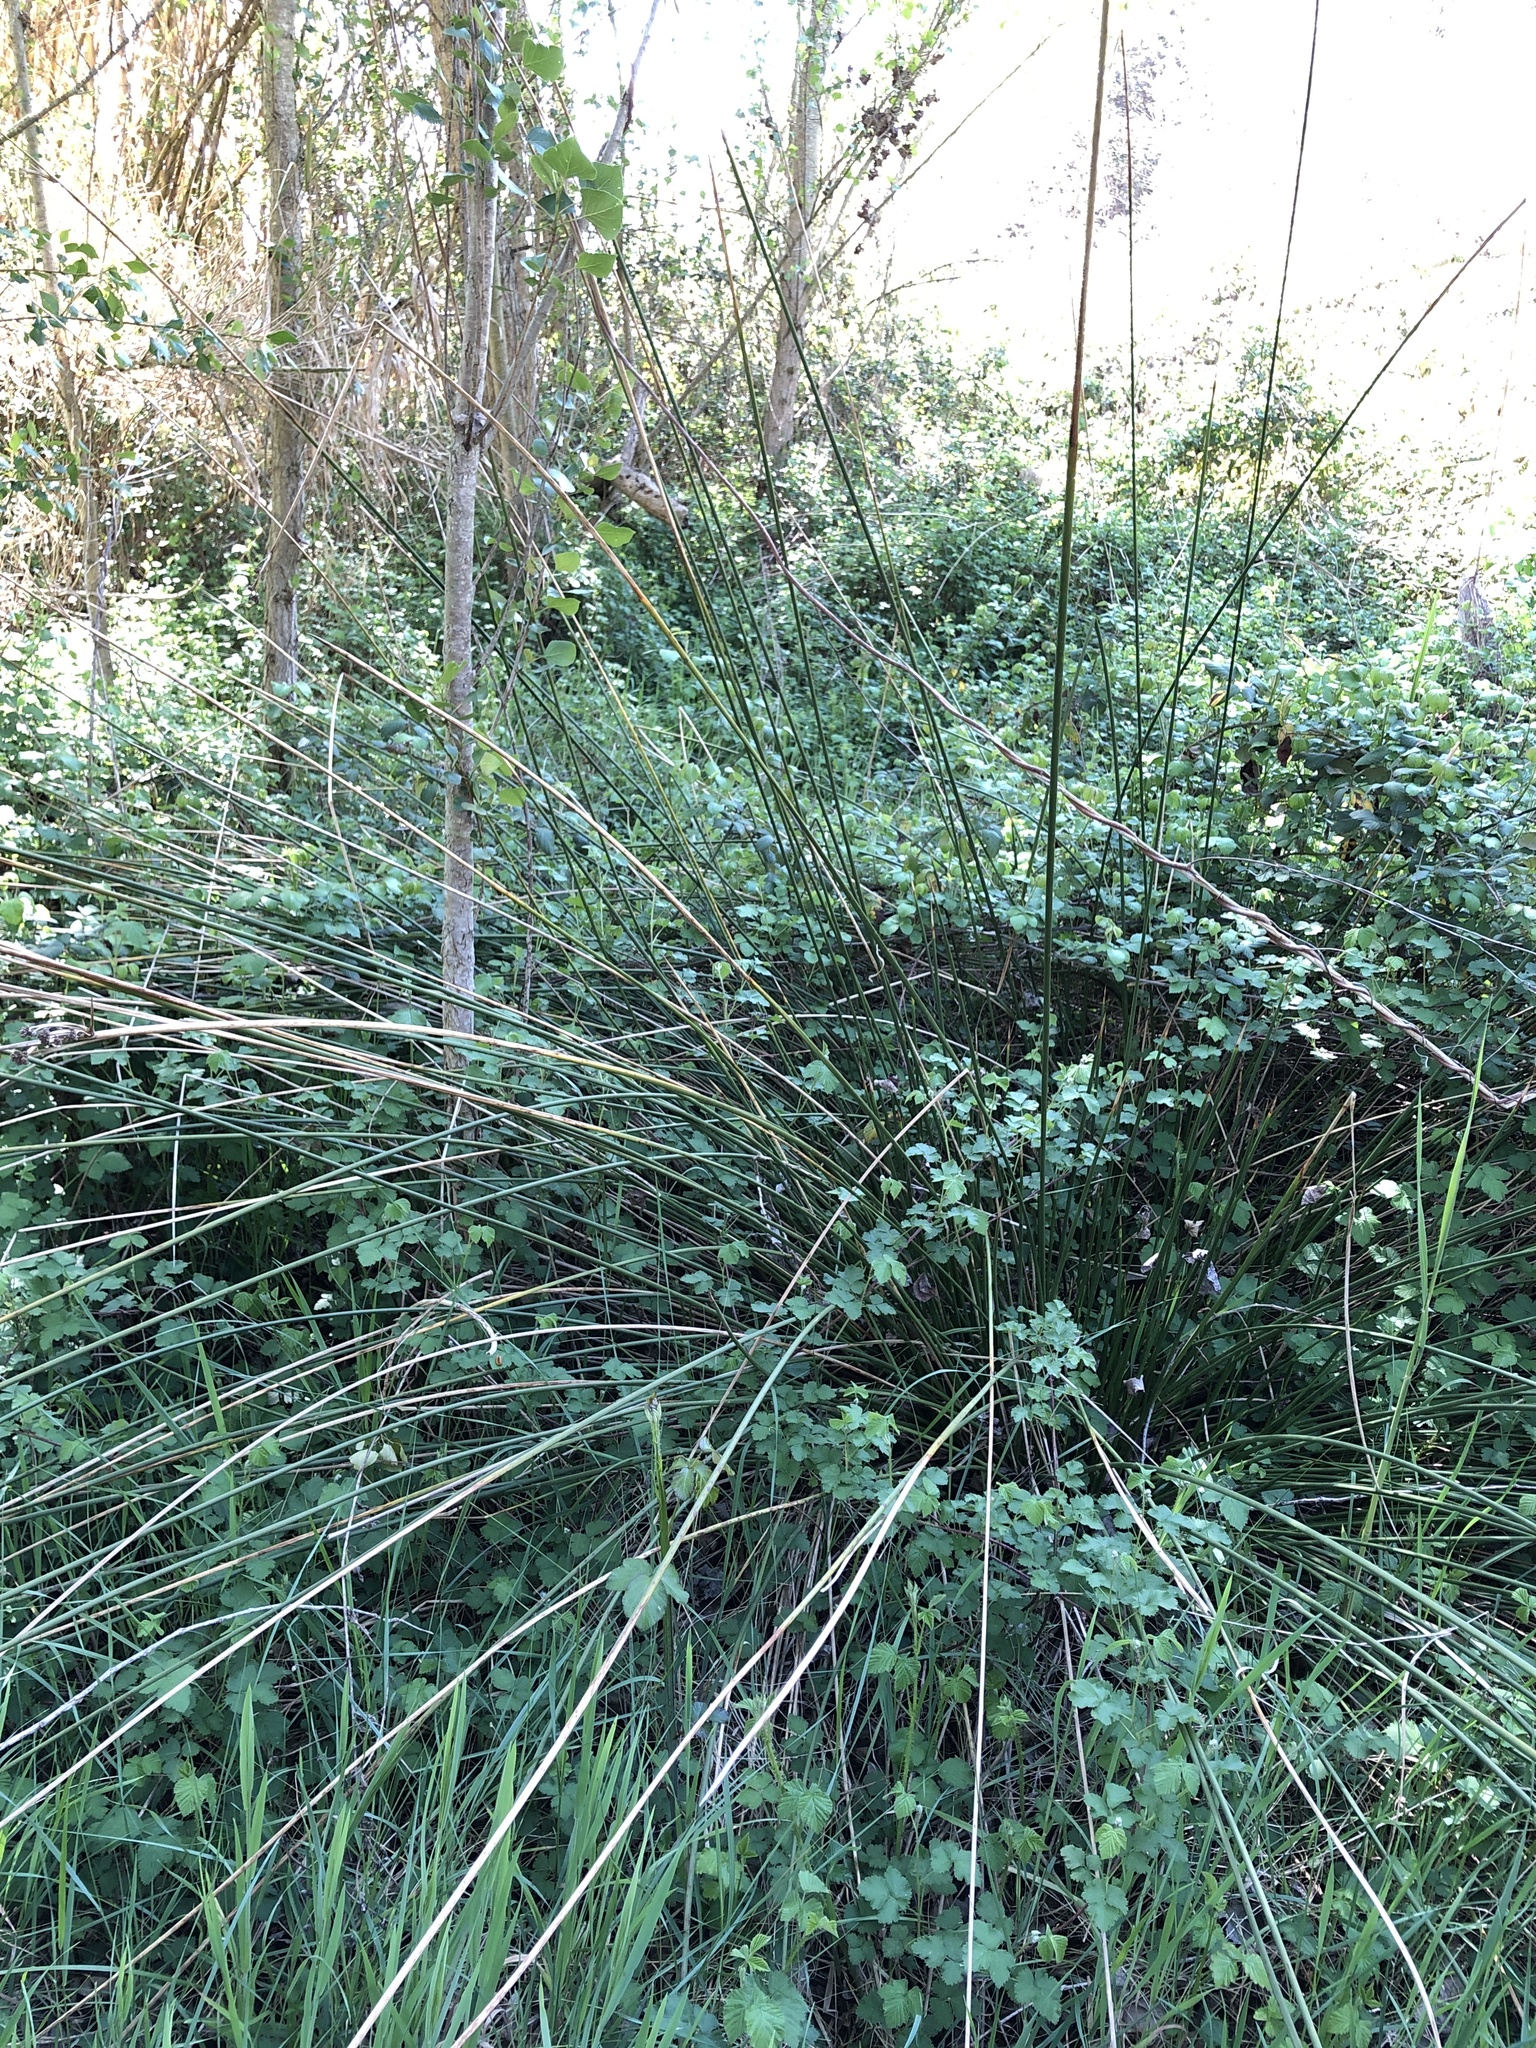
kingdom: Plantae
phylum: Tracheophyta
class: Liliopsida
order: Poales
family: Cyperaceae
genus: Scirpoides
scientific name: Scirpoides holoschoenus
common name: Round-headed club-rush
